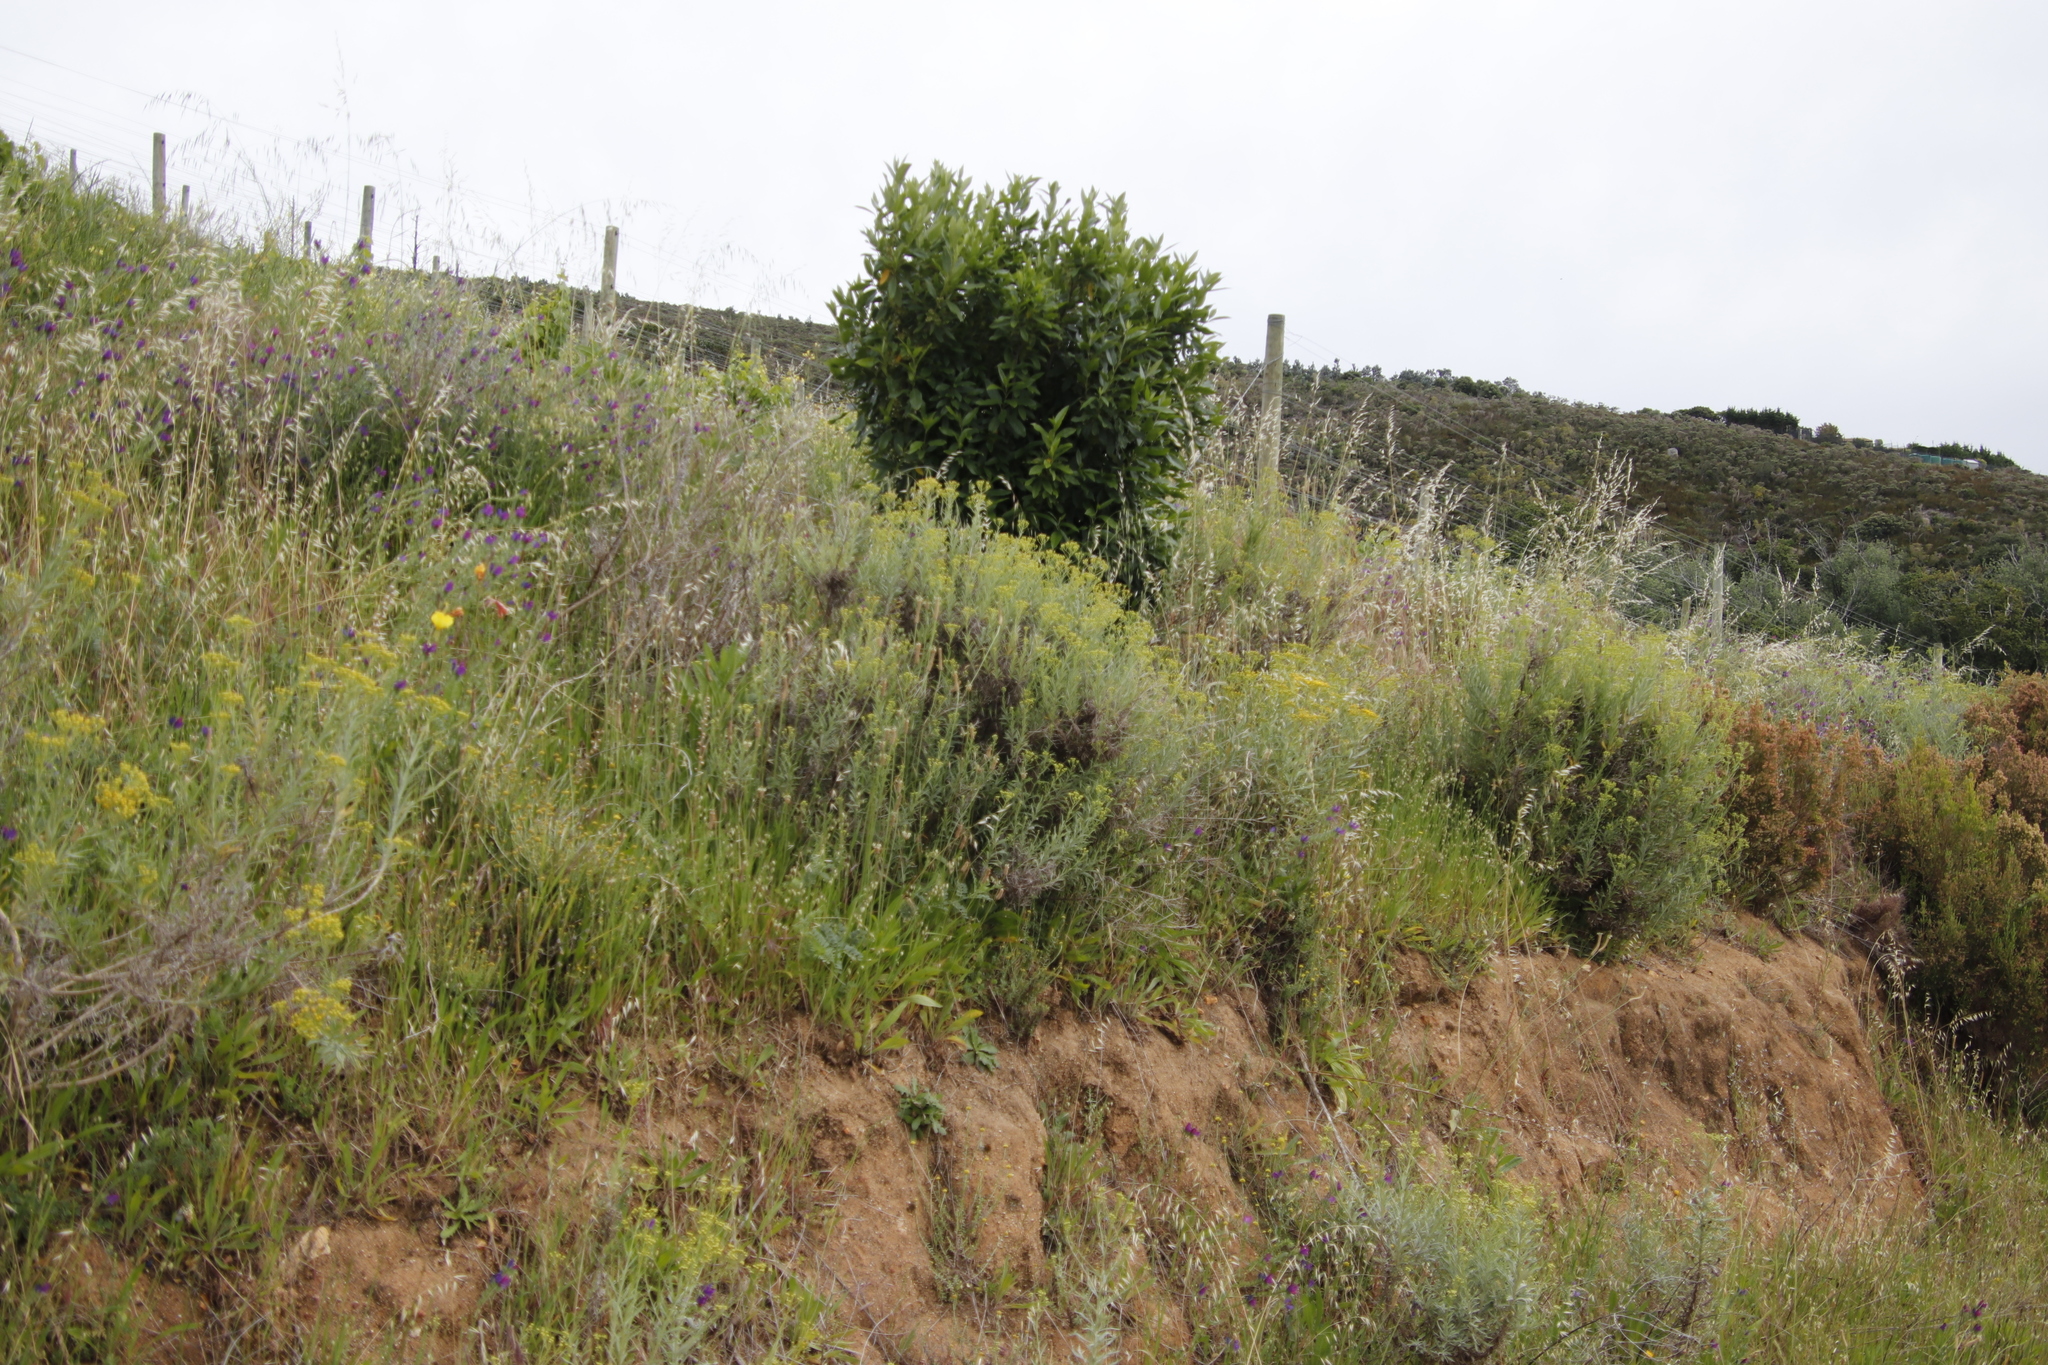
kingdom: Plantae
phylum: Tracheophyta
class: Magnoliopsida
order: Asterales
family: Asteraceae
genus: Senecio
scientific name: Senecio pterophorus
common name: Shoddy ragwort
